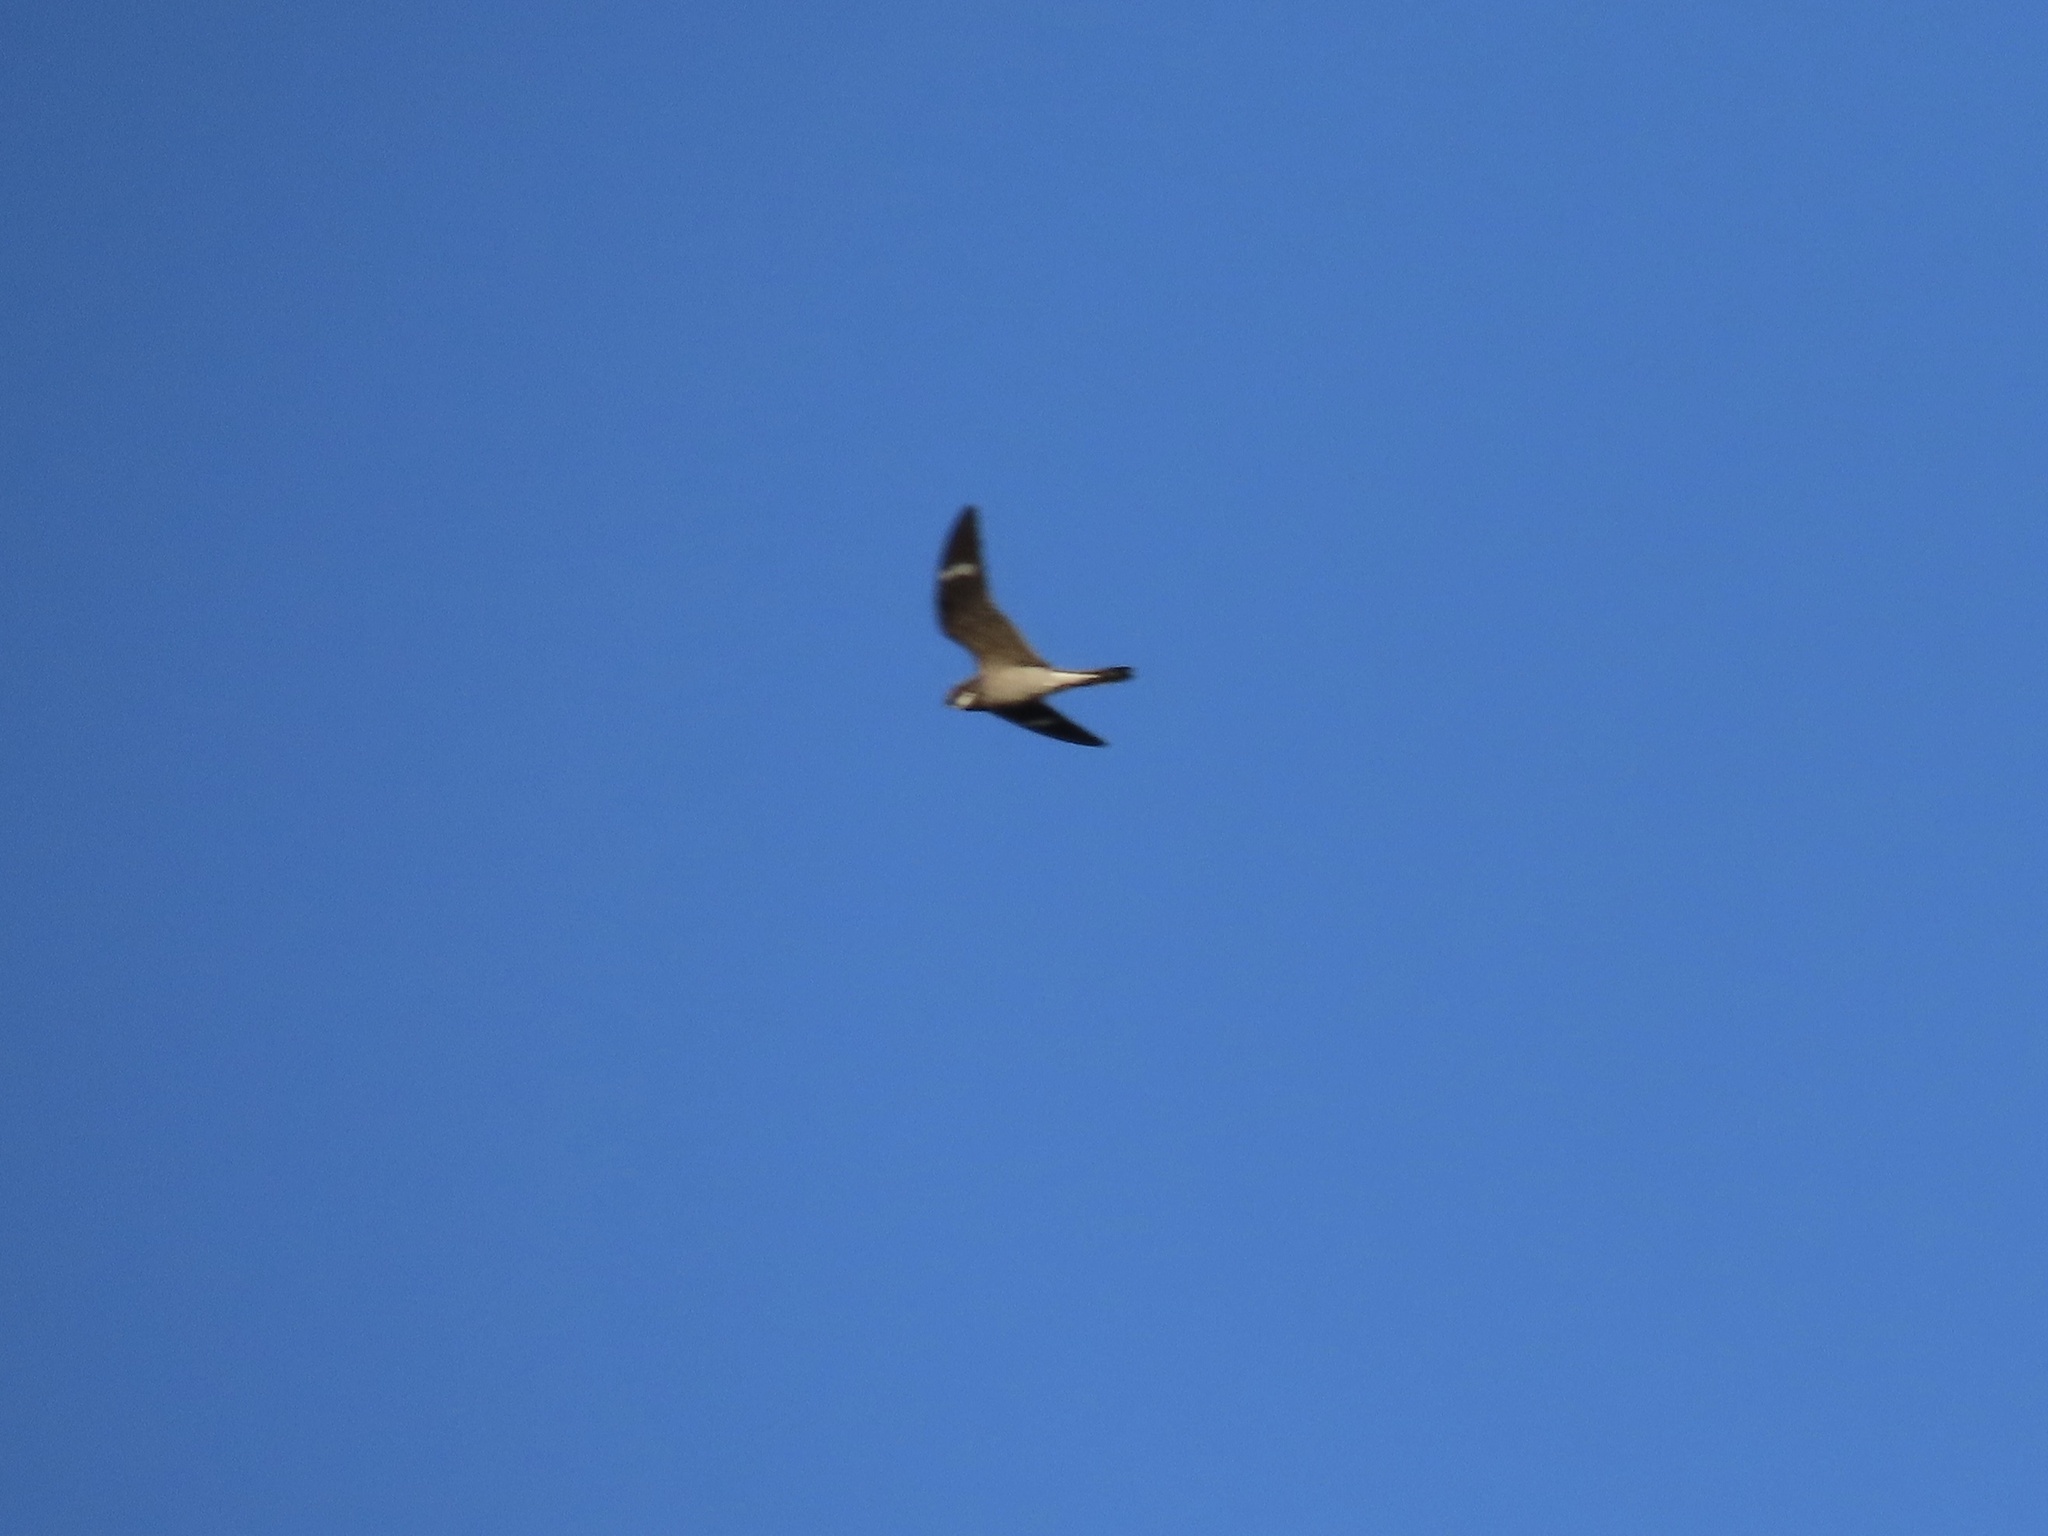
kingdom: Animalia
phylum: Chordata
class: Aves
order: Caprimulgiformes
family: Caprimulgidae
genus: Chordeiles
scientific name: Chordeiles minor
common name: Common nighthawk
